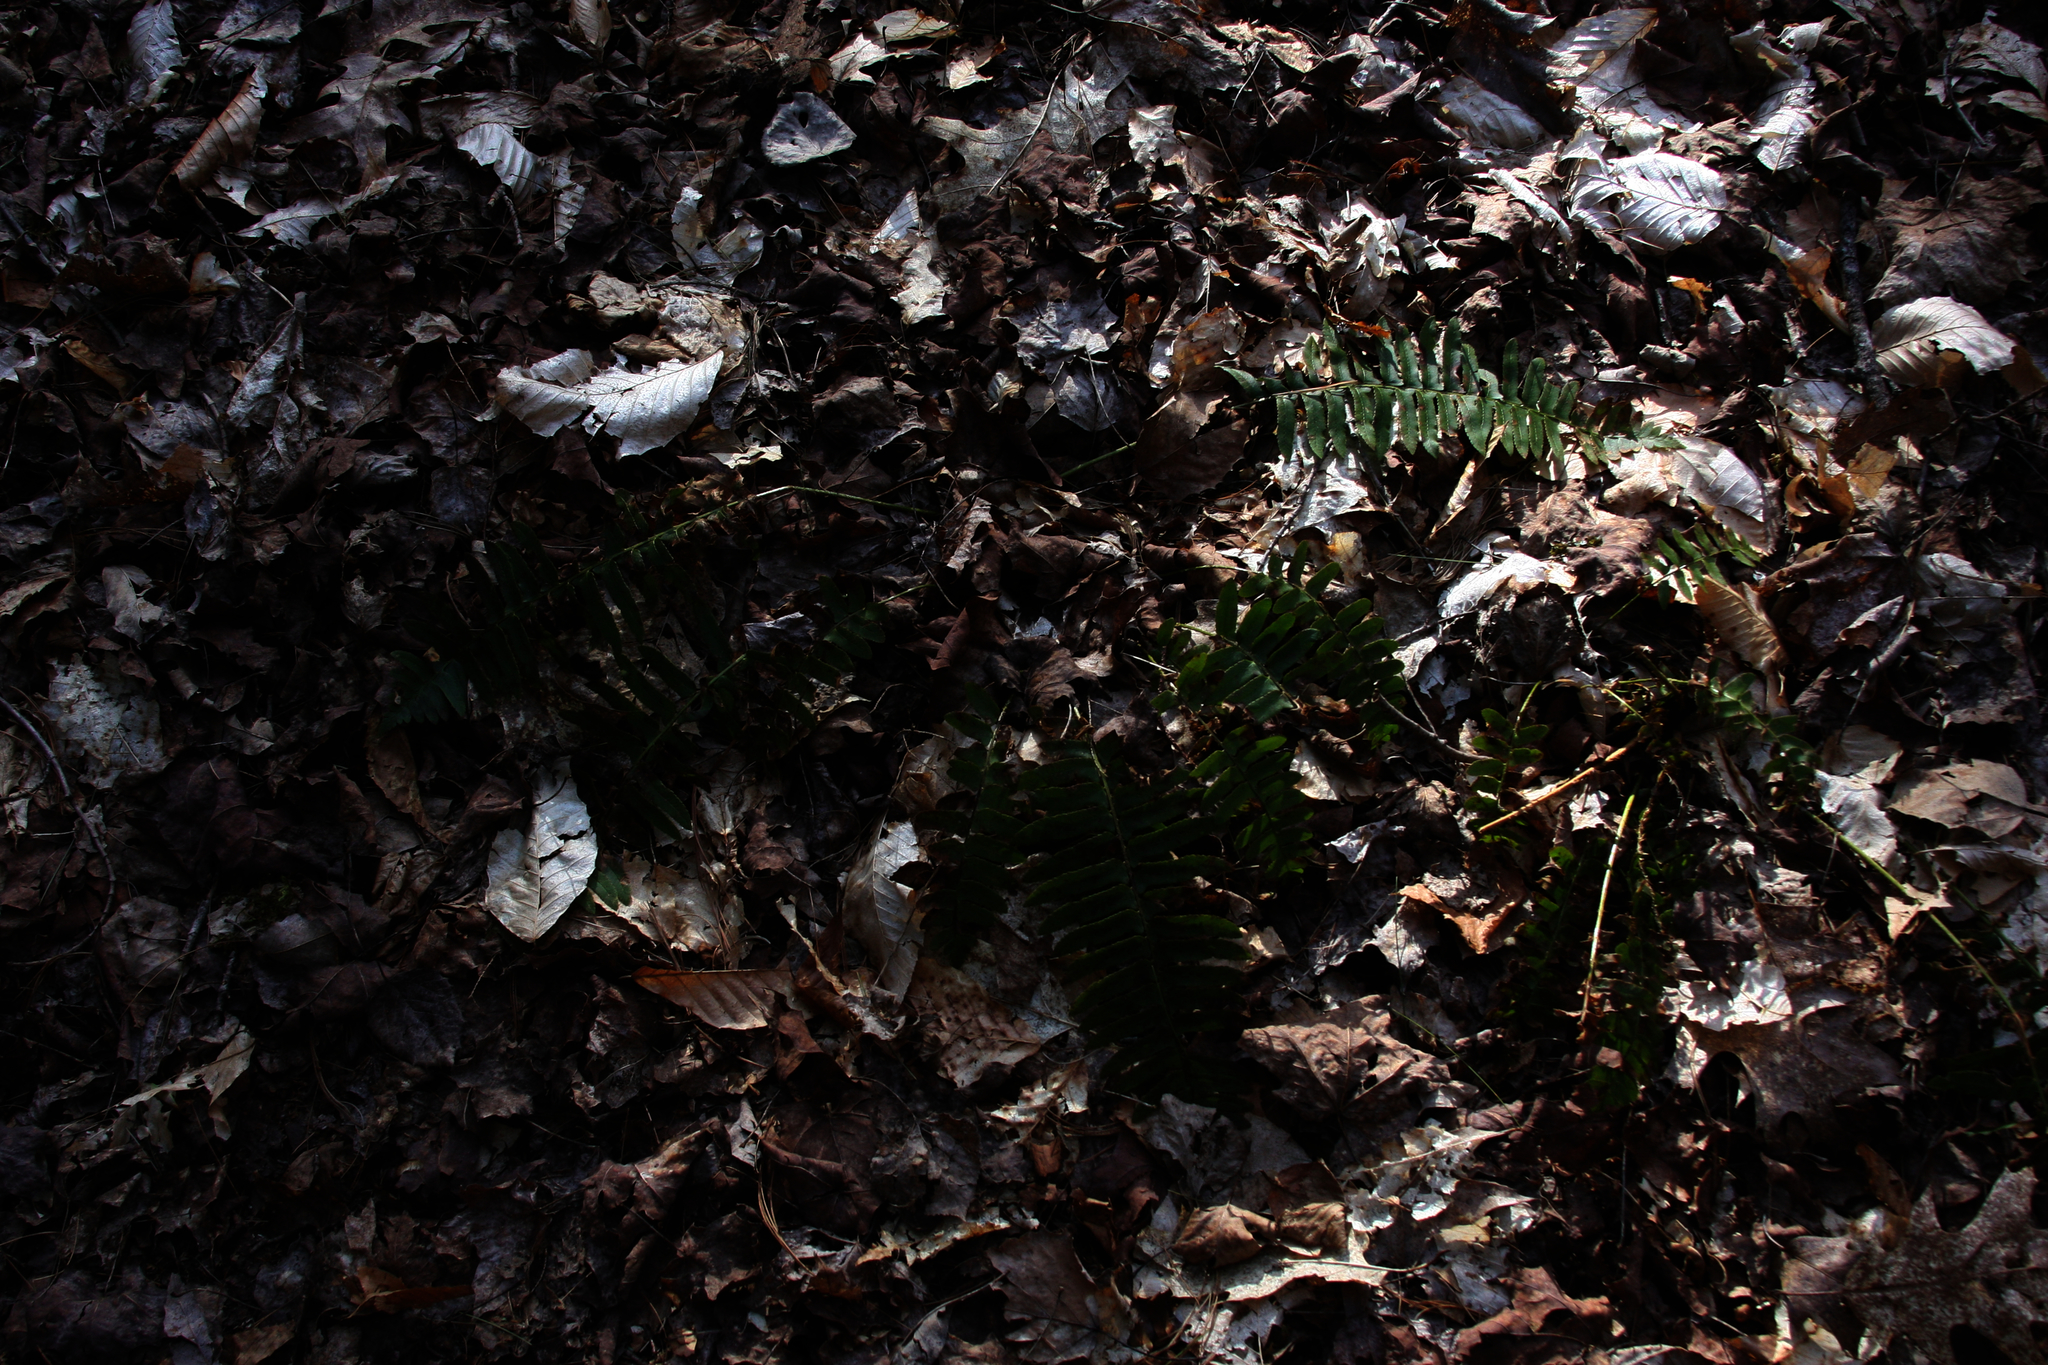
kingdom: Plantae
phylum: Tracheophyta
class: Polypodiopsida
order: Polypodiales
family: Dryopteridaceae
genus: Polystichum
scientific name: Polystichum acrostichoides
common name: Christmas fern
